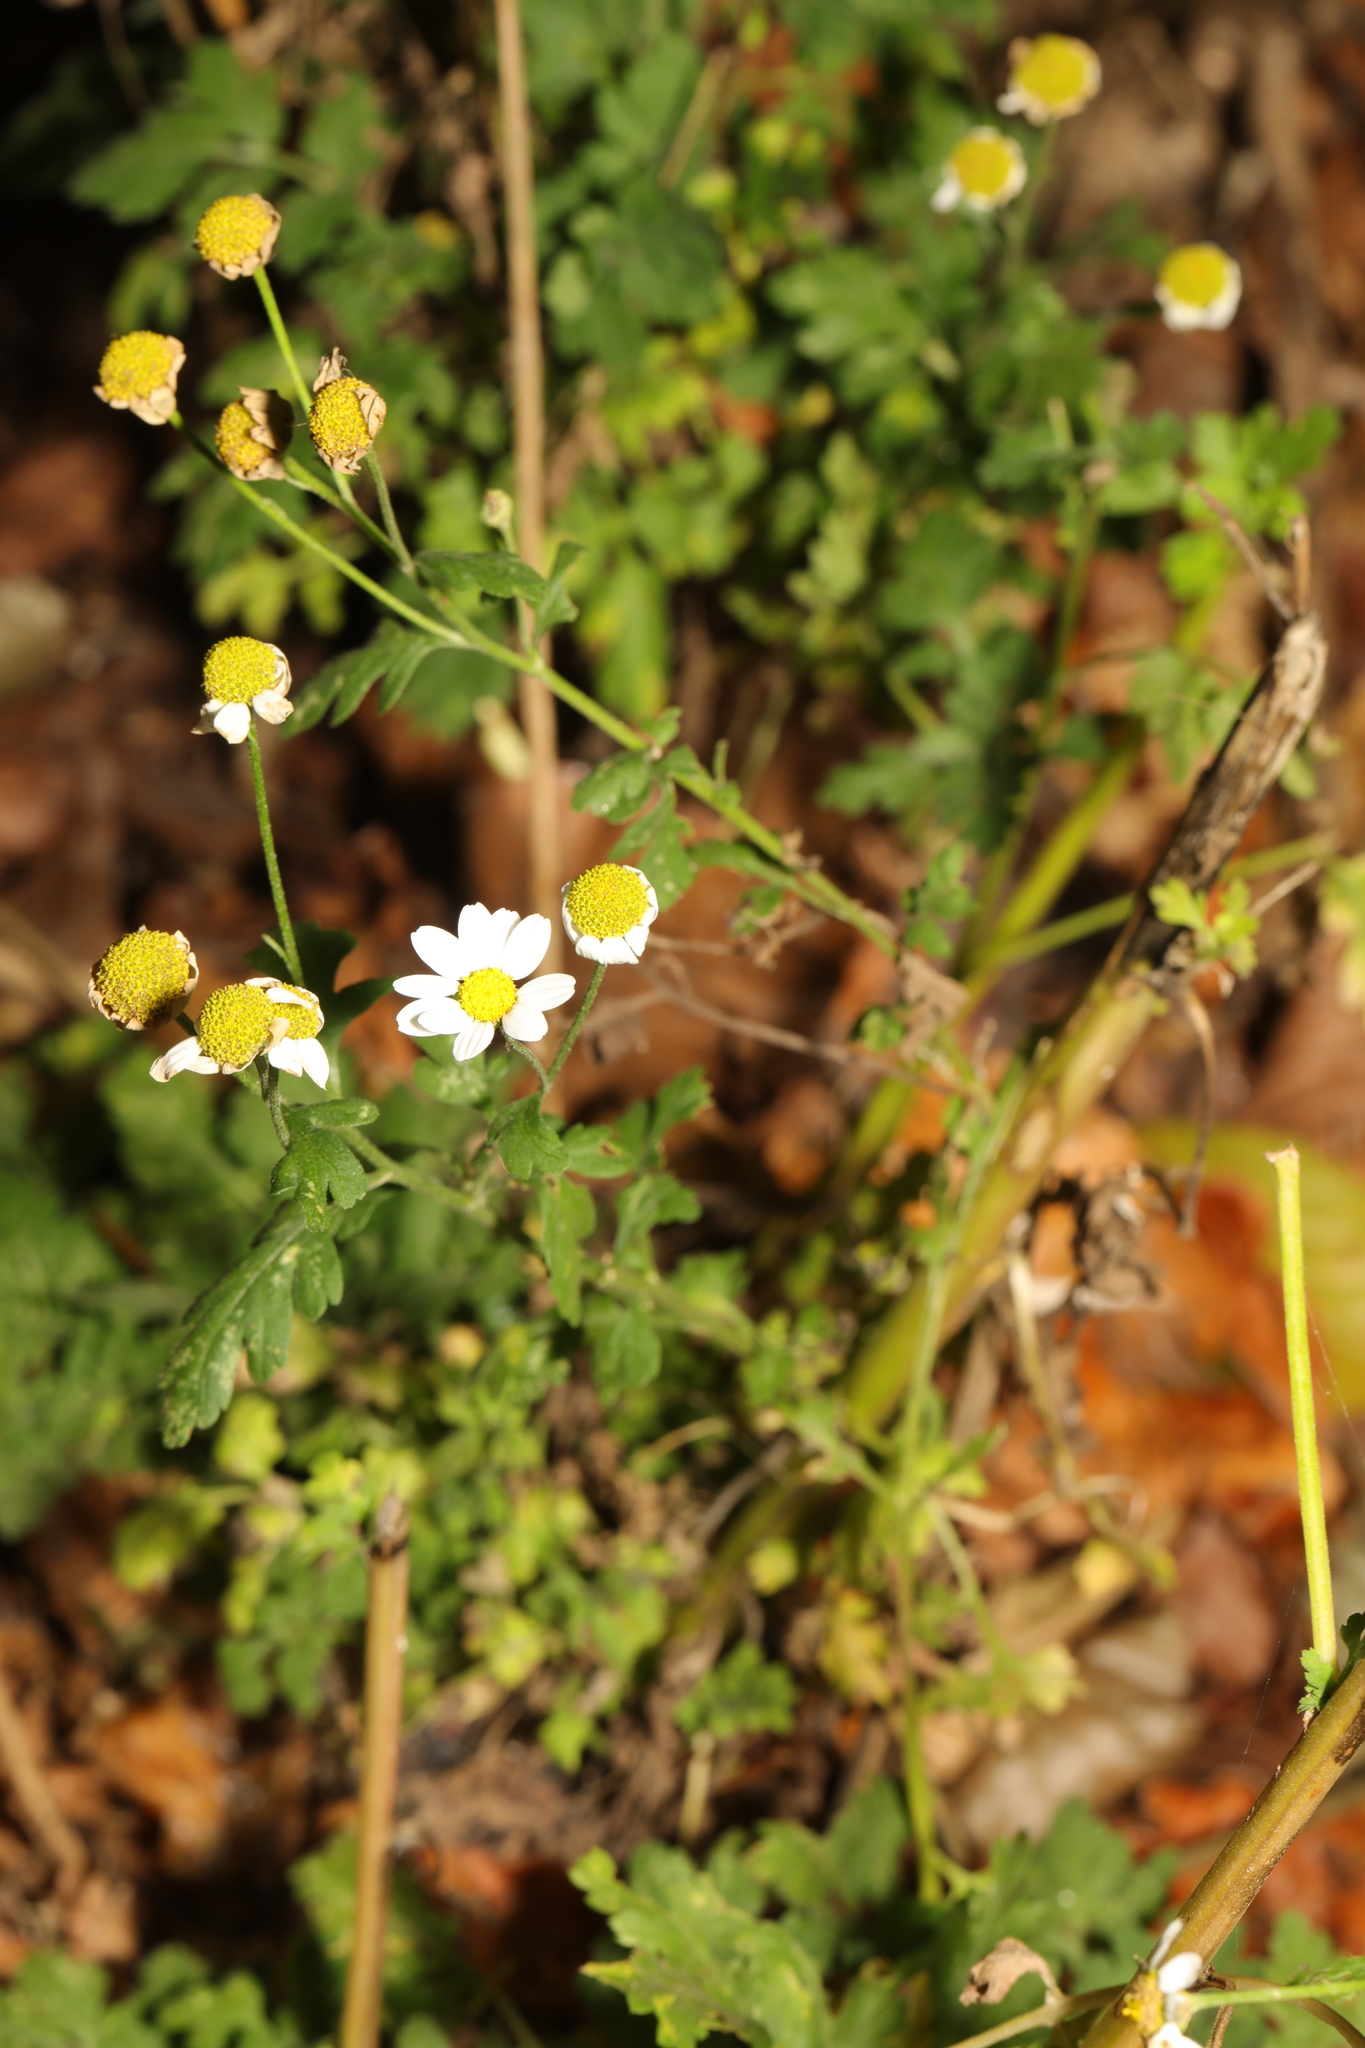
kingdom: Plantae
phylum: Tracheophyta
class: Magnoliopsida
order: Asterales
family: Asteraceae
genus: Tanacetum
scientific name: Tanacetum parthenium
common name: Feverfew
